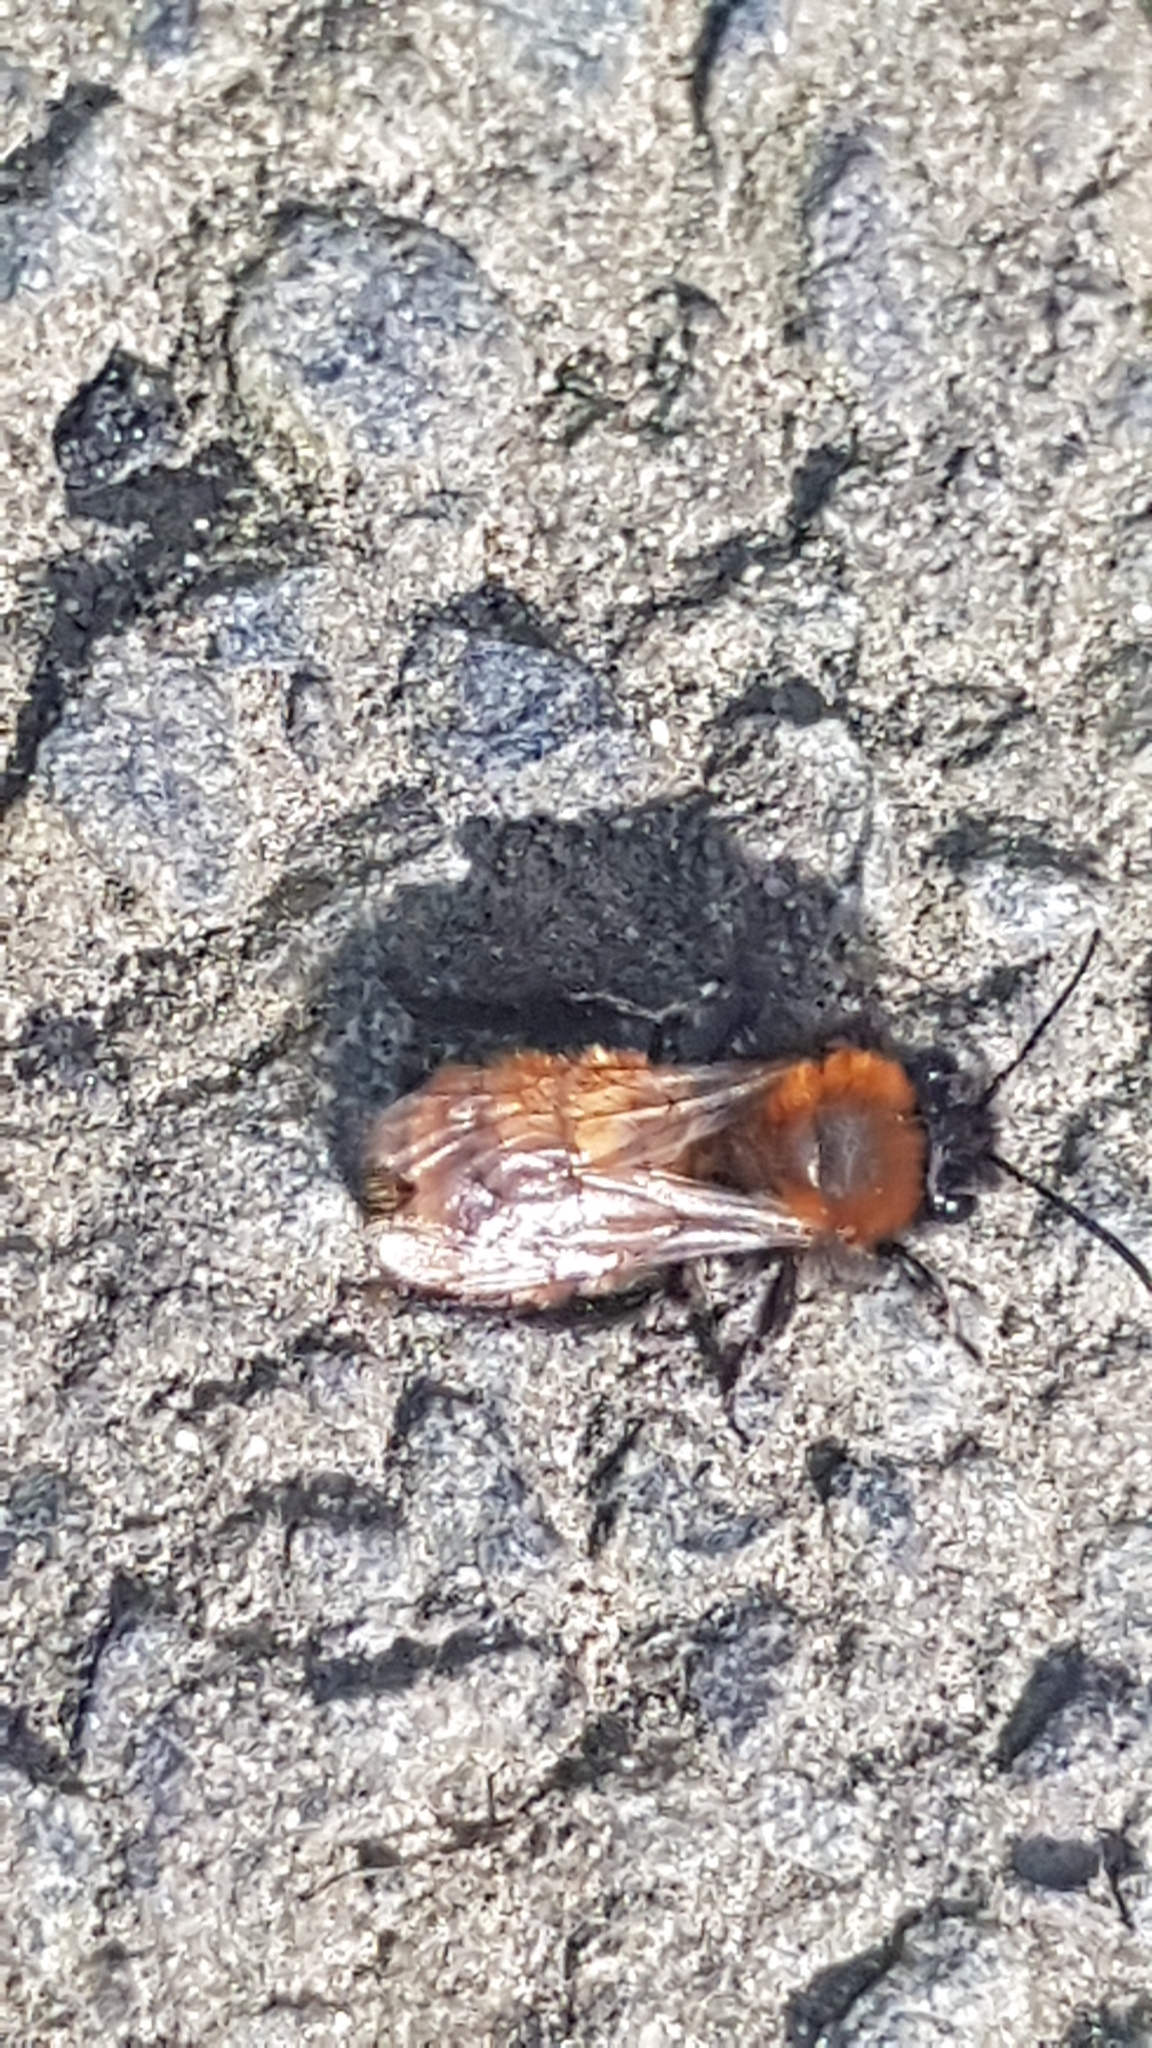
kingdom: Animalia
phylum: Arthropoda
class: Insecta
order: Hymenoptera
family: Andrenidae
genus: Andrena
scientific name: Andrena fulva
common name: Tawny mining bee
